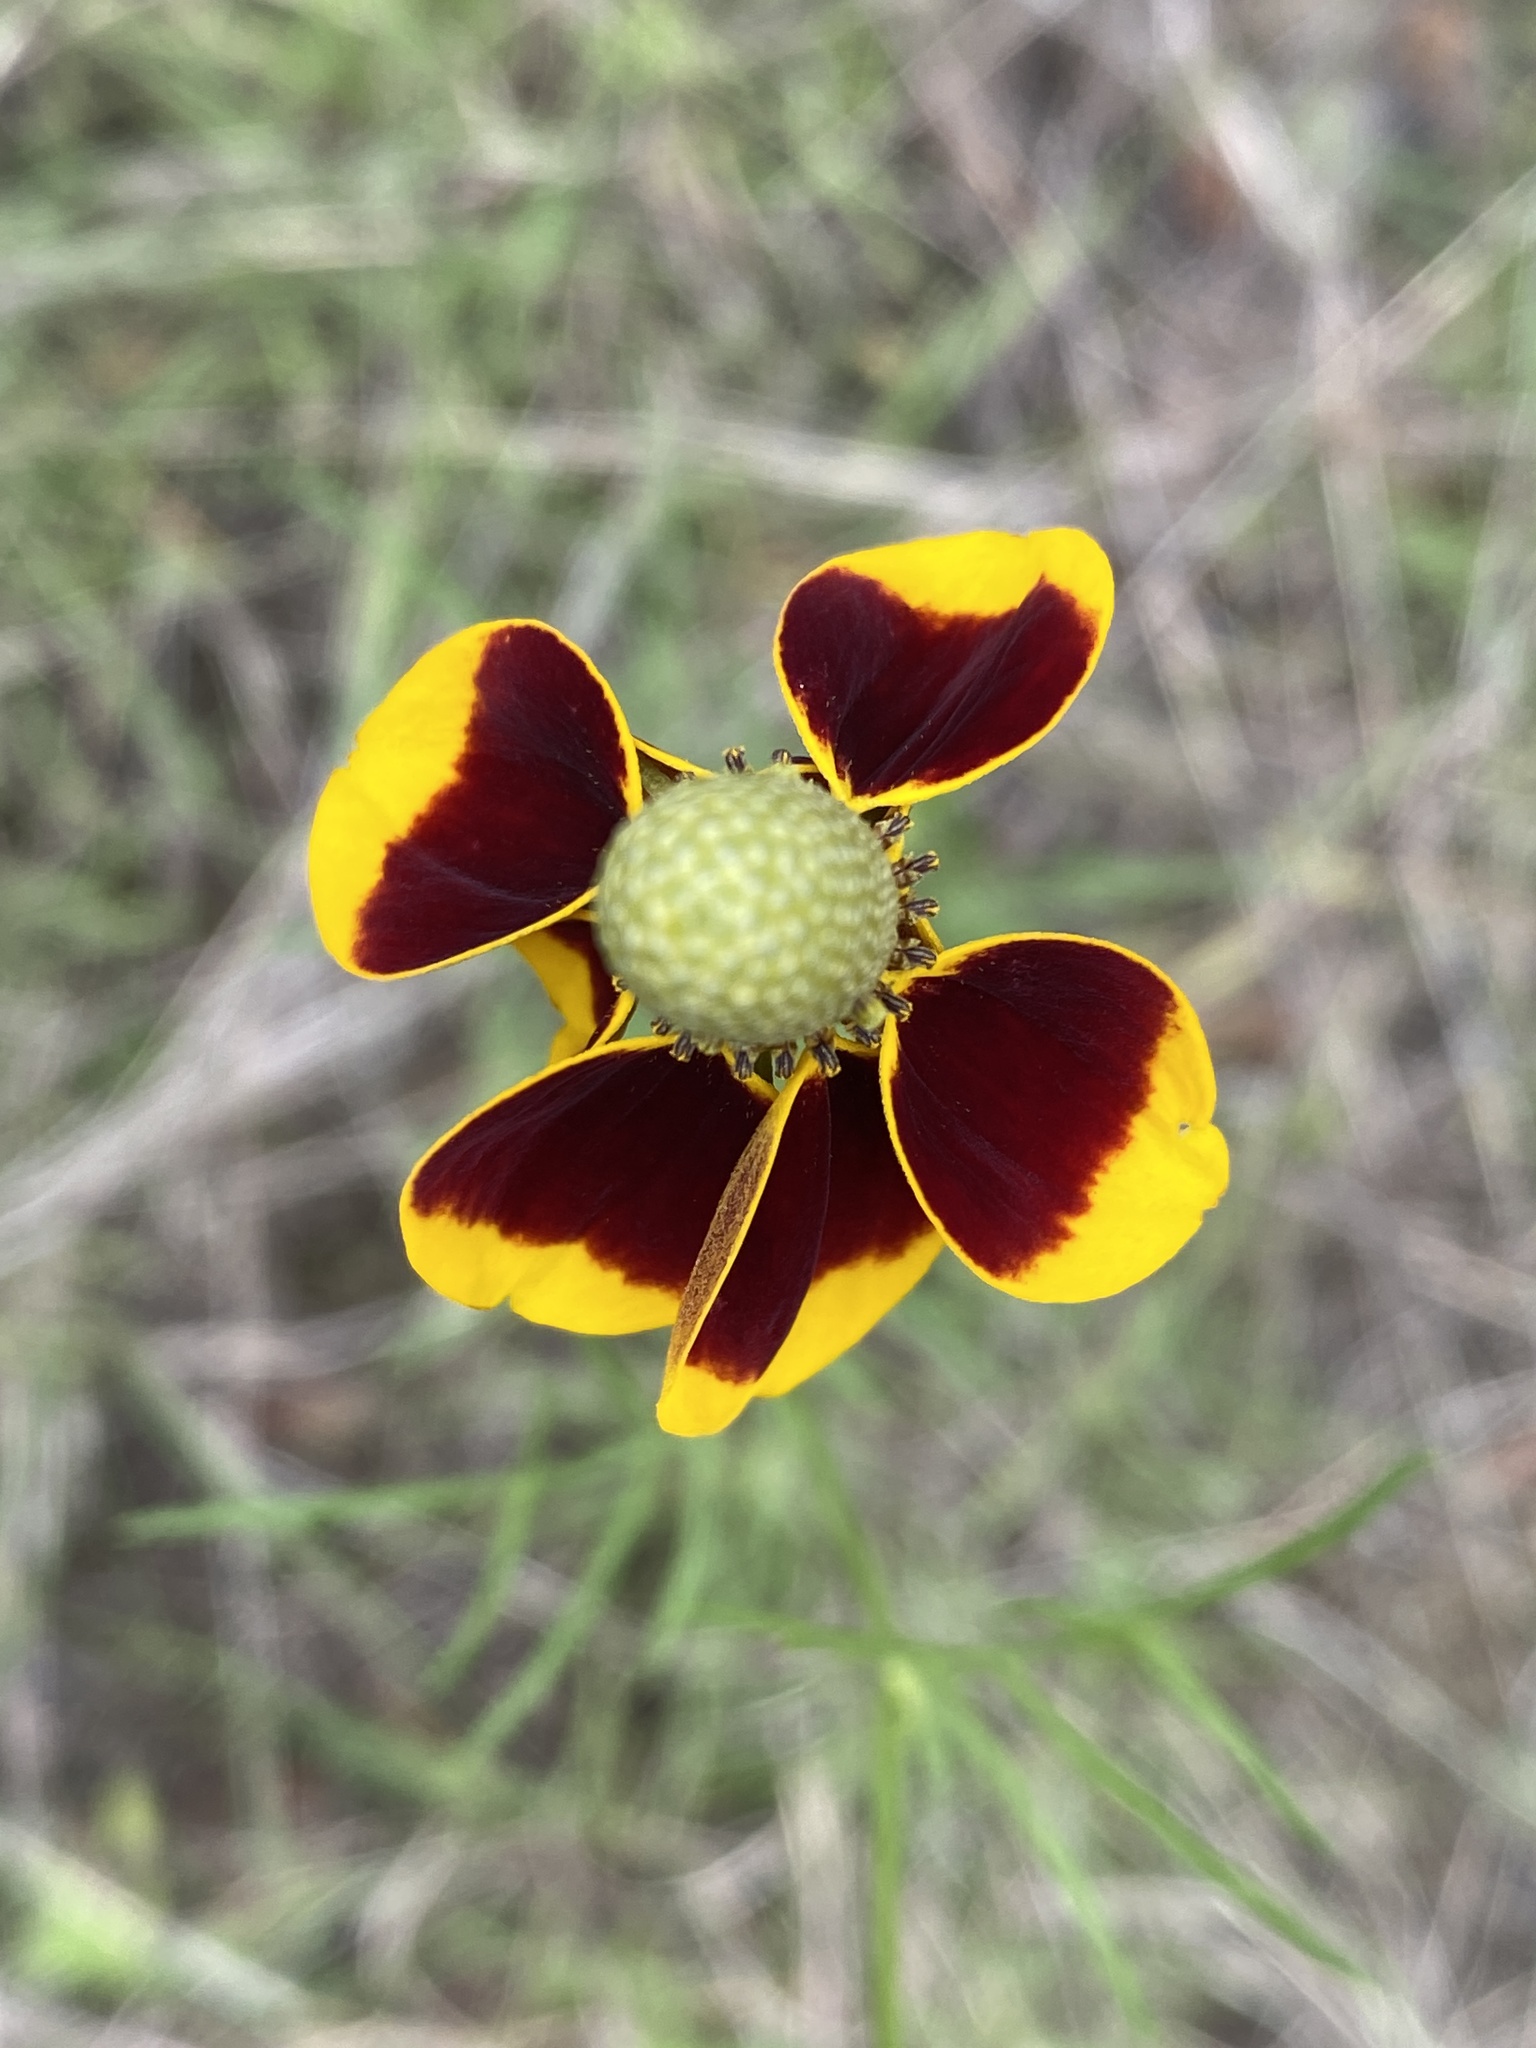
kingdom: Plantae
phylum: Tracheophyta
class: Magnoliopsida
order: Asterales
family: Asteraceae
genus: Ratibida
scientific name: Ratibida columnifera
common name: Prairie coneflower
